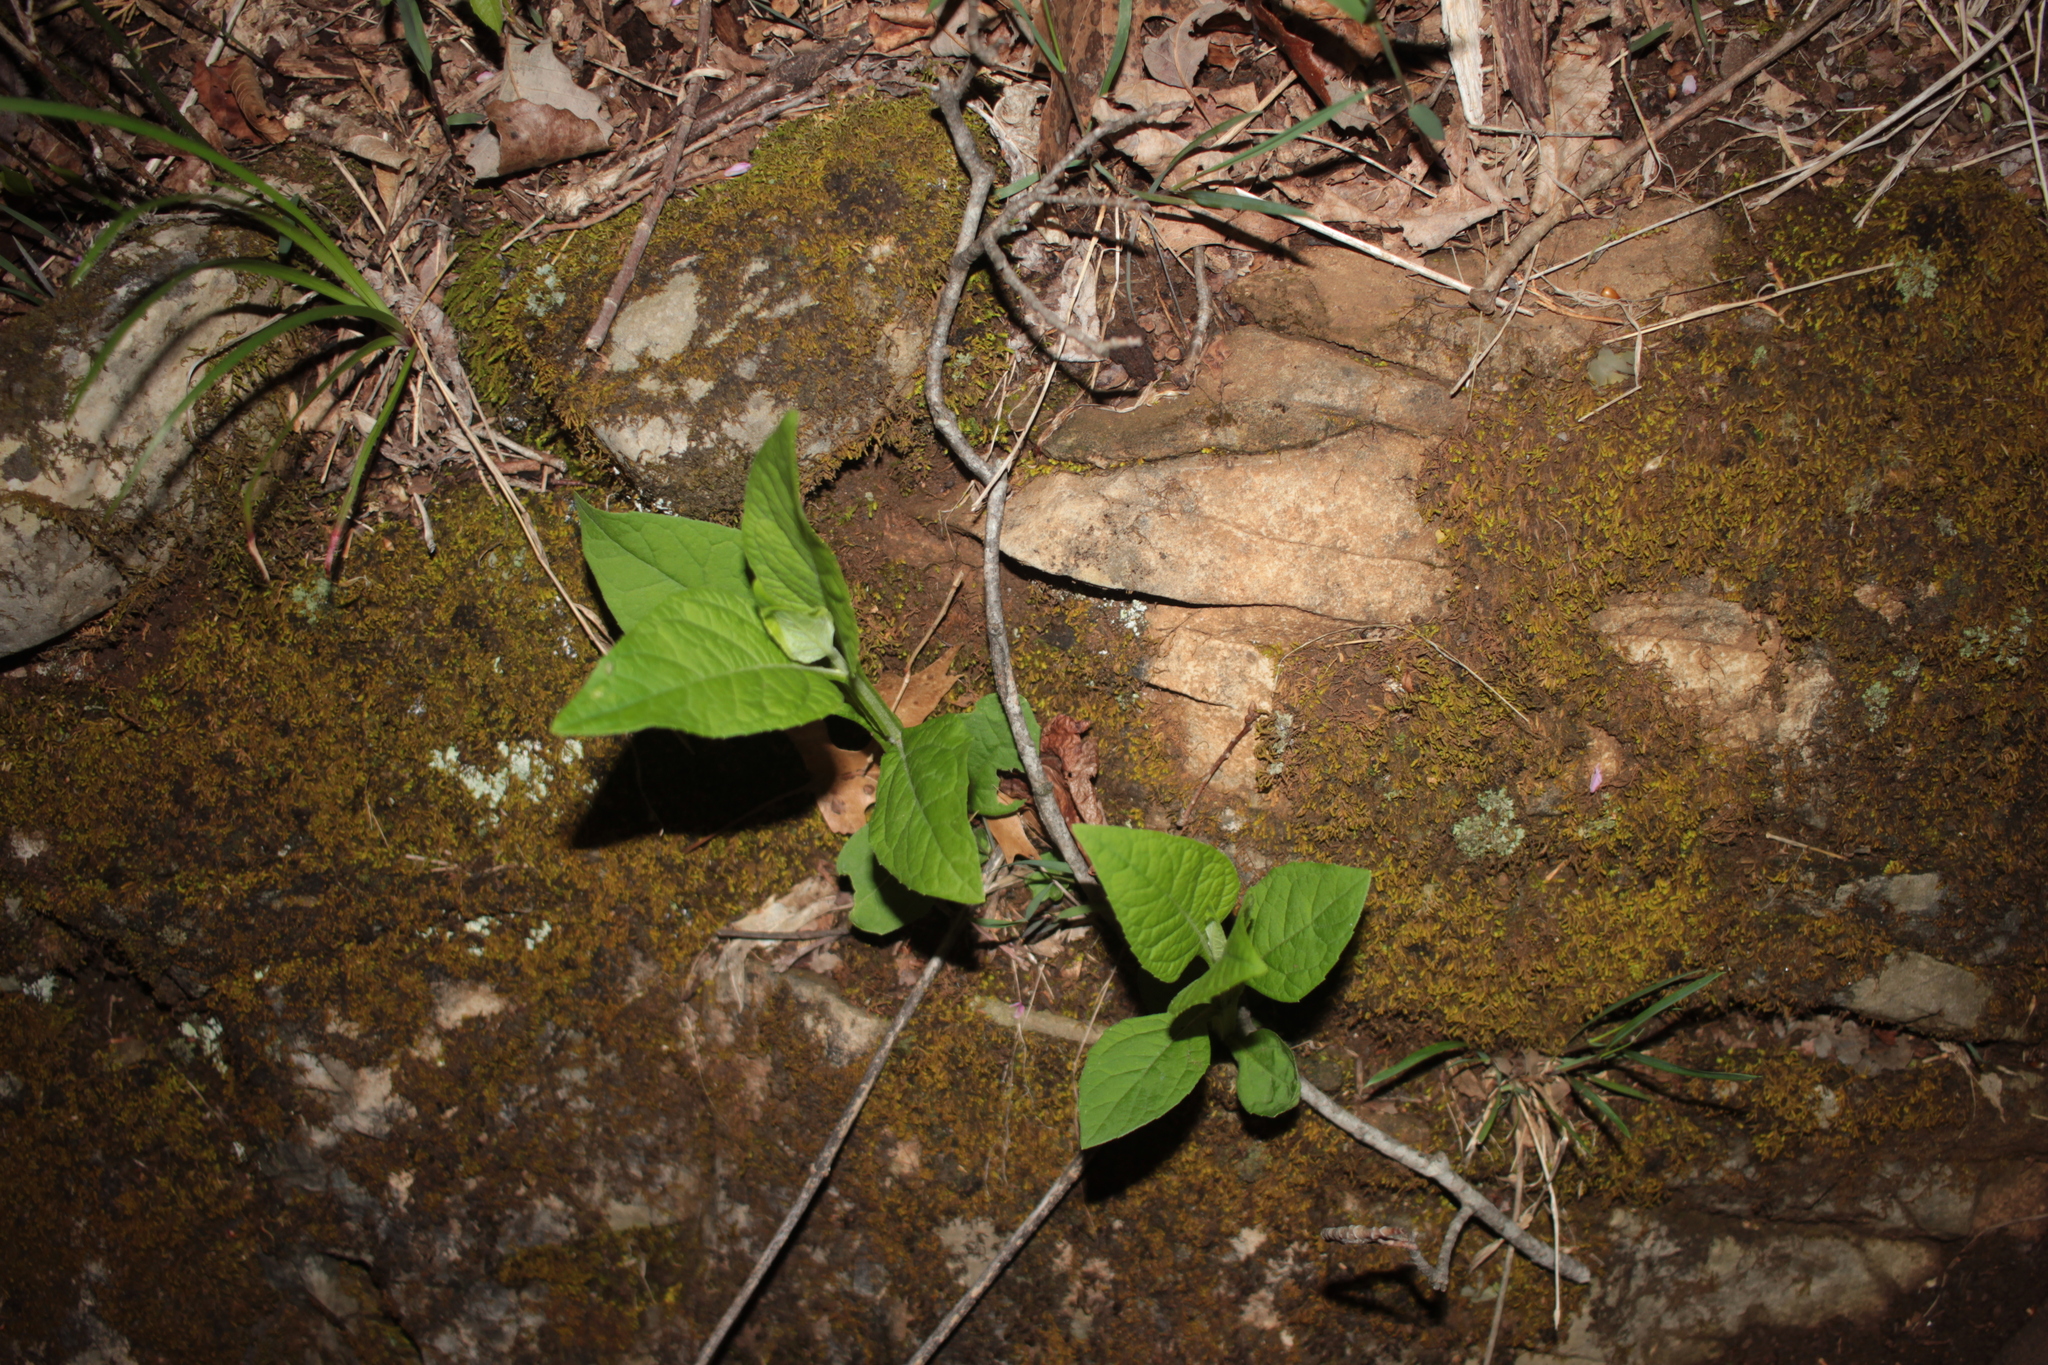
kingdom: Plantae
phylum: Tracheophyta
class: Magnoliopsida
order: Asterales
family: Asteraceae
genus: Verbesina
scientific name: Verbesina occidentalis
